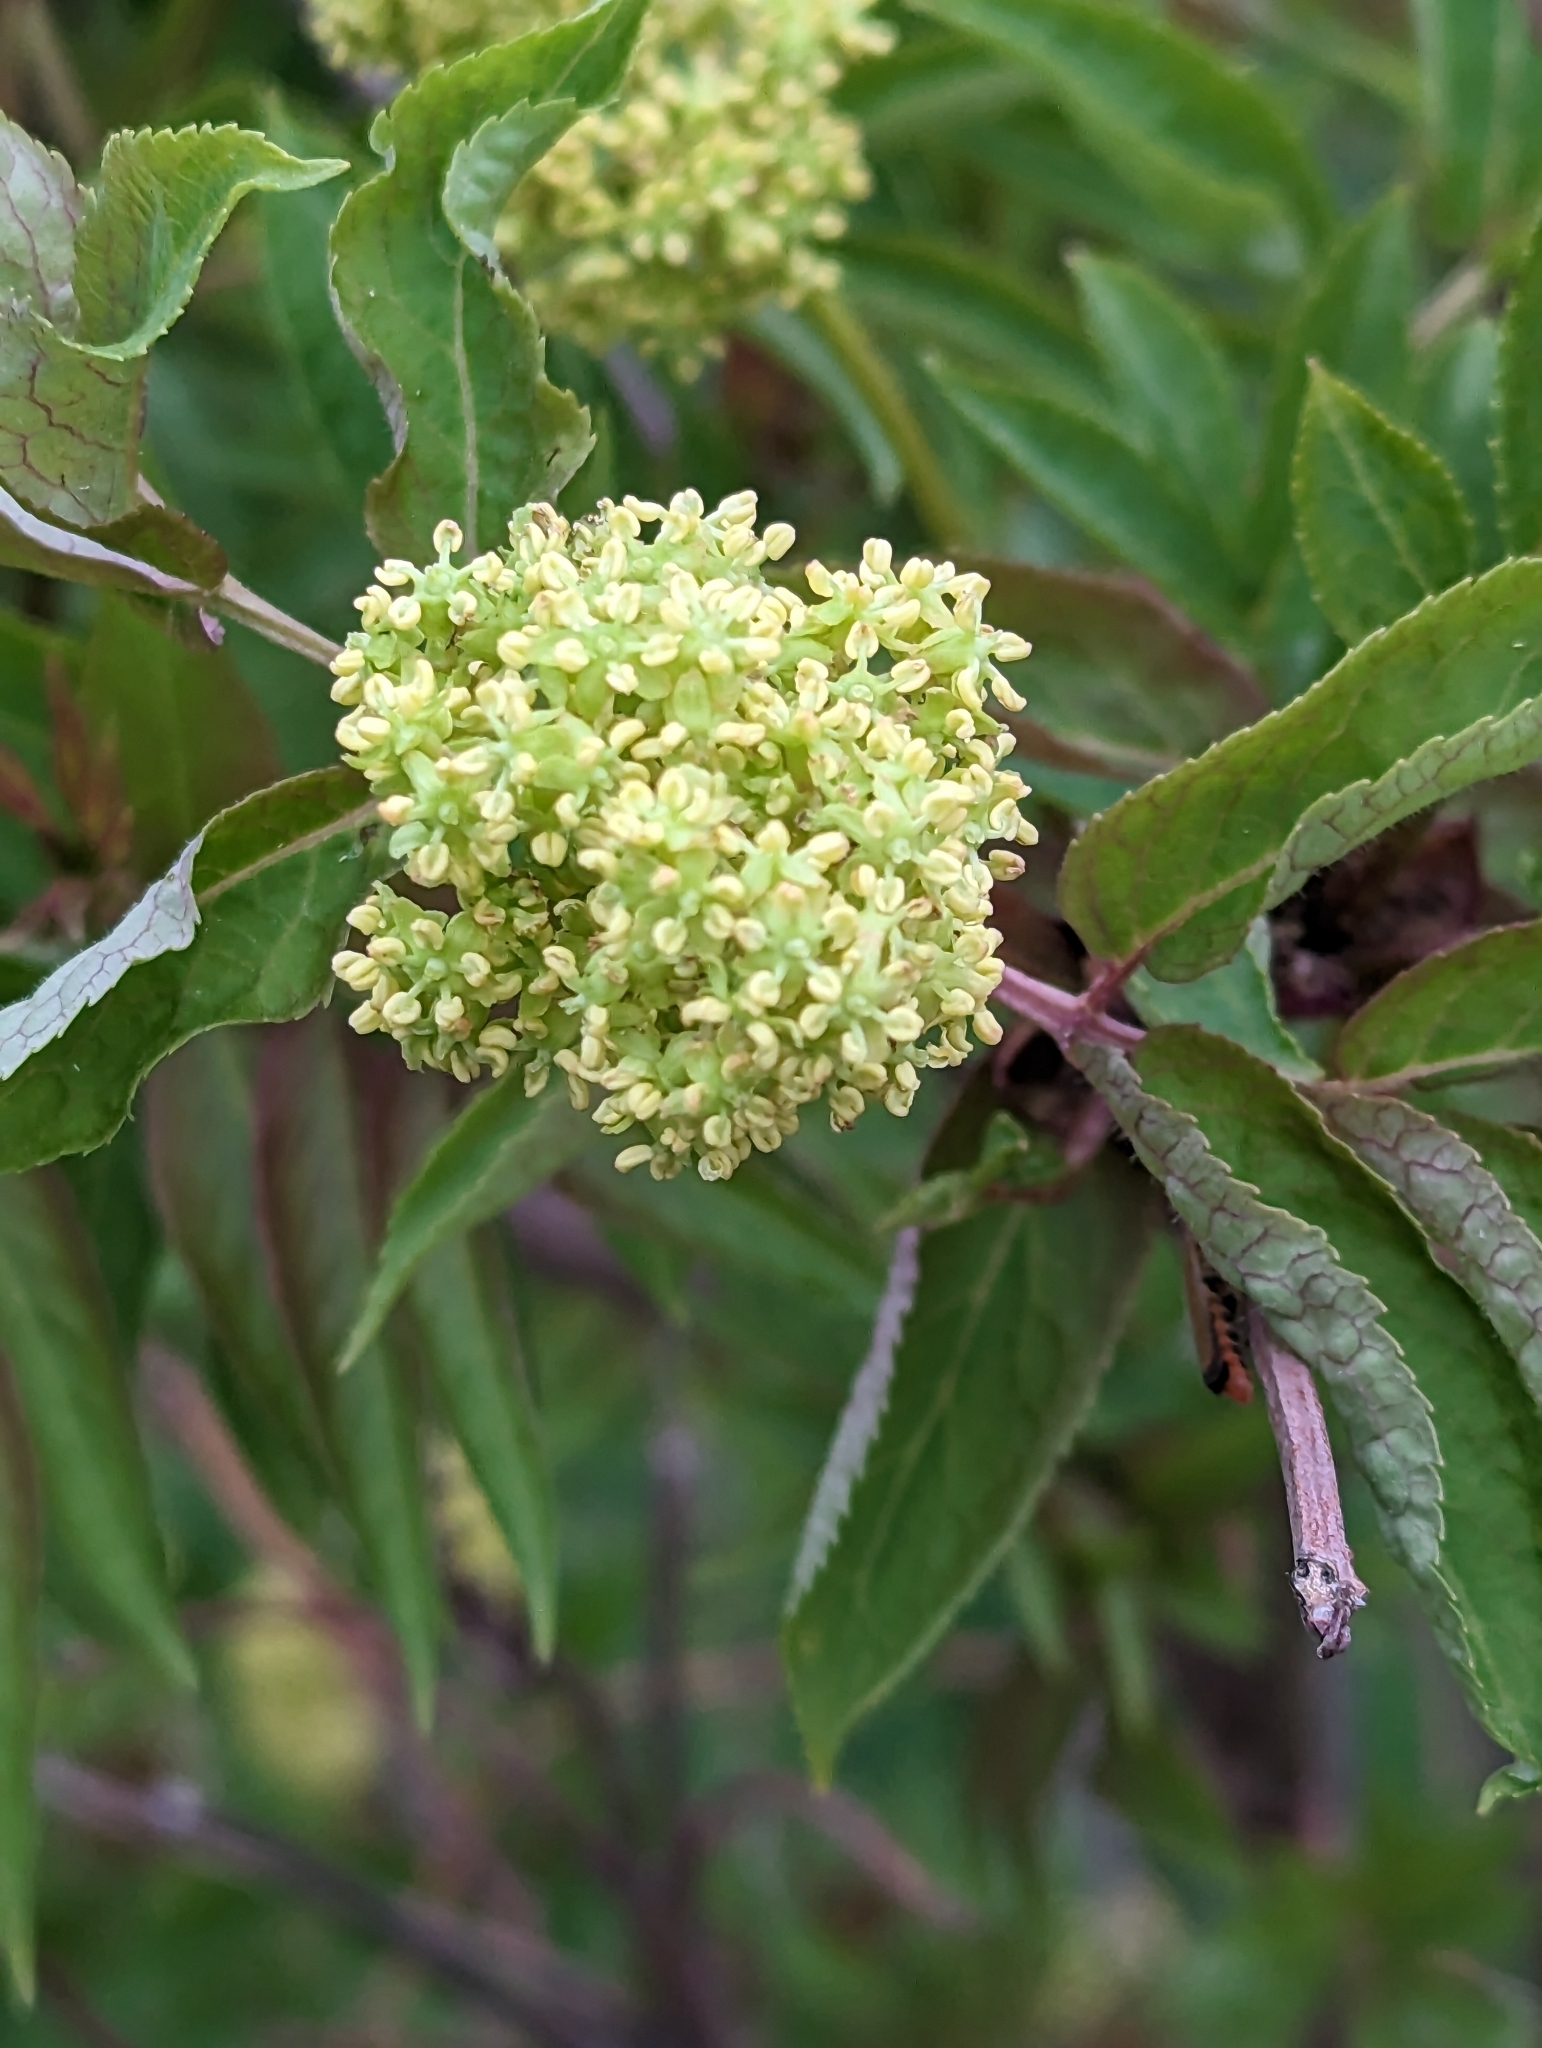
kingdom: Plantae
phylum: Tracheophyta
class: Magnoliopsida
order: Dipsacales
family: Viburnaceae
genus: Sambucus
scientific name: Sambucus racemosa
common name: Red-berried elder
